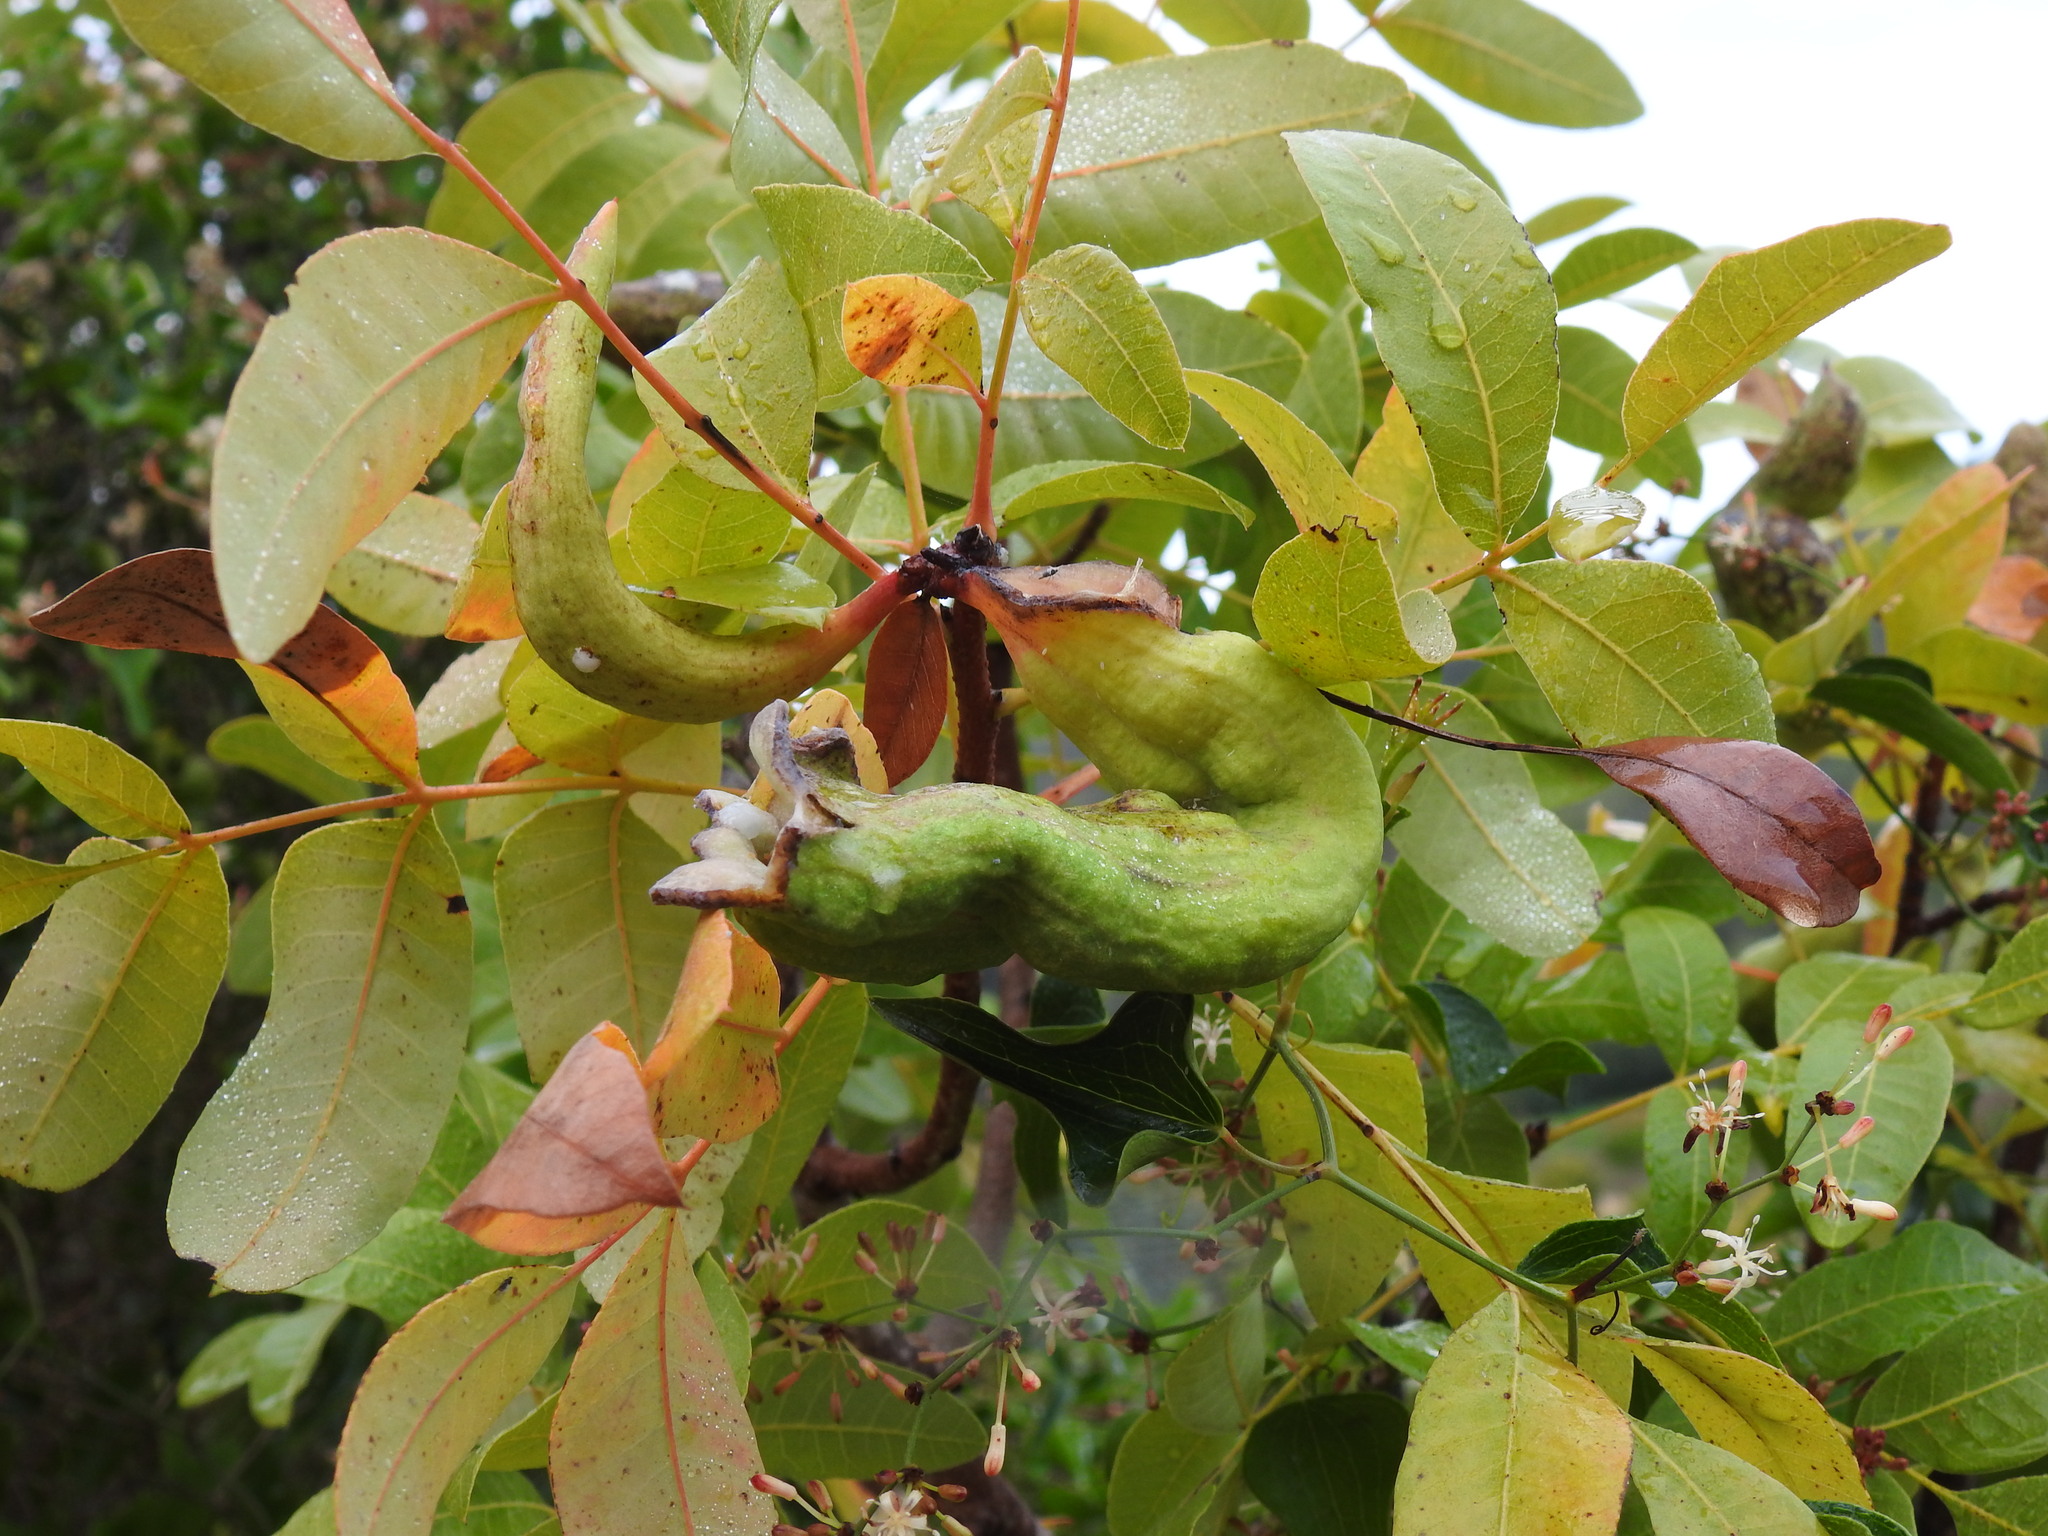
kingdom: Animalia
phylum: Arthropoda
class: Insecta
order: Hemiptera
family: Aphididae
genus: Baizongia
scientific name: Baizongia pistaciae
